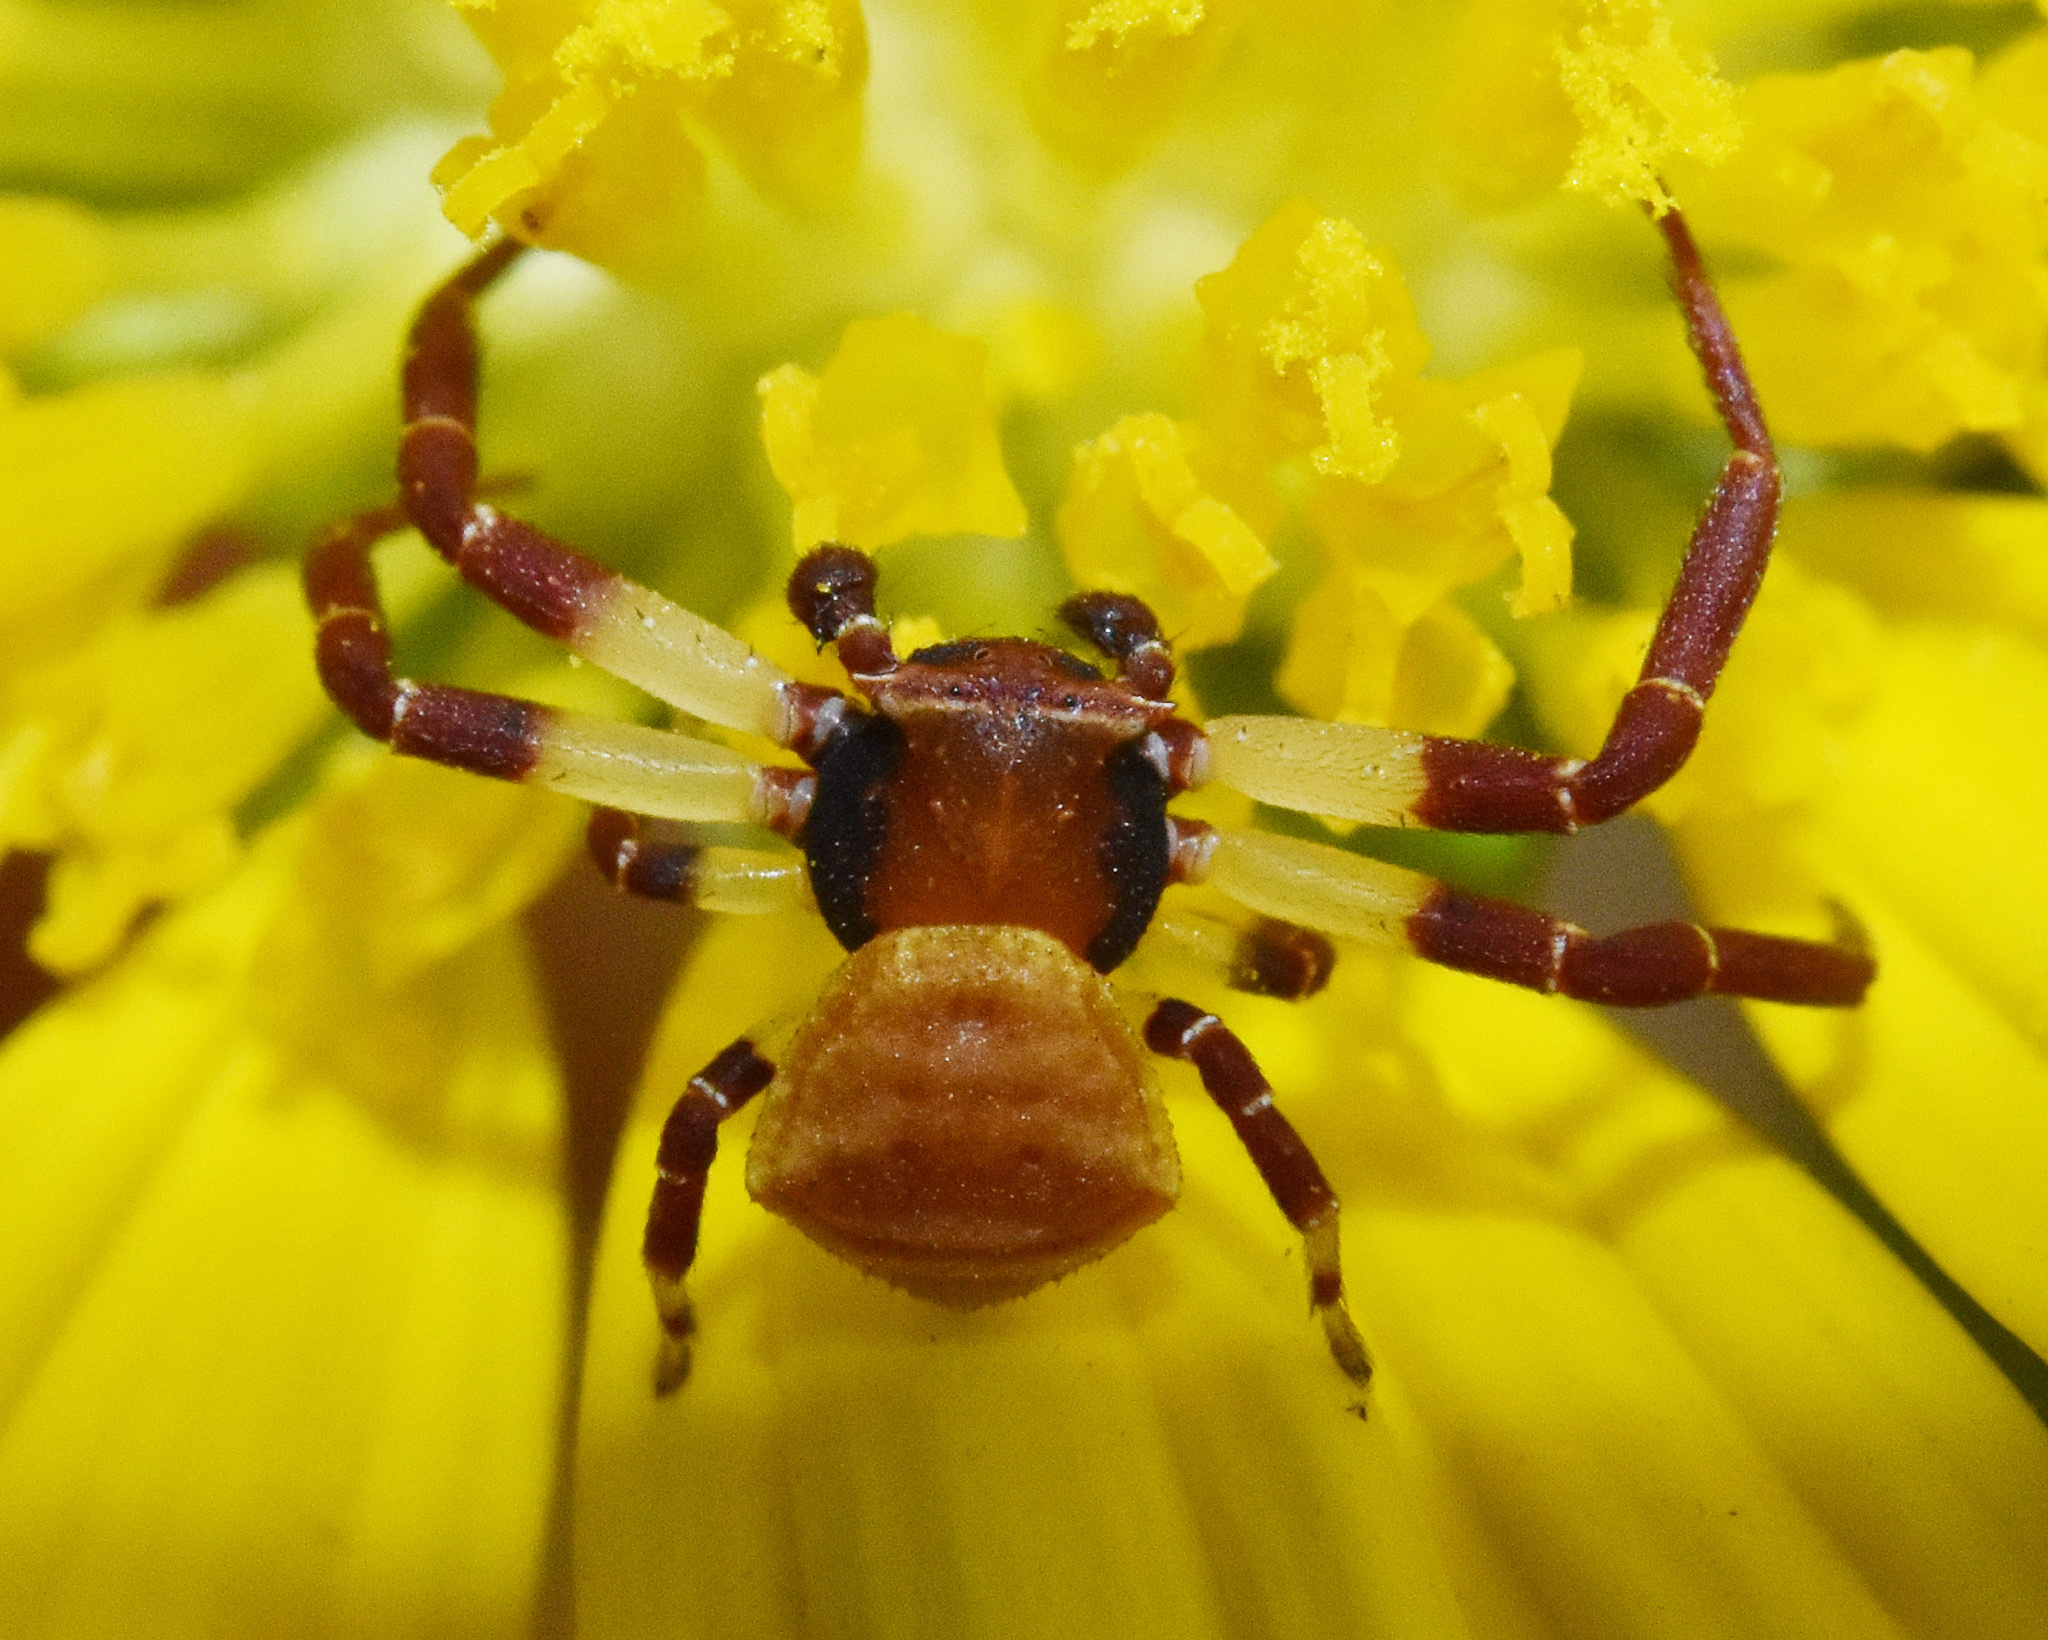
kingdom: Animalia
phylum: Arthropoda
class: Arachnida
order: Araneae
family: Thomisidae
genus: Thomisus
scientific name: Thomisus blandus
